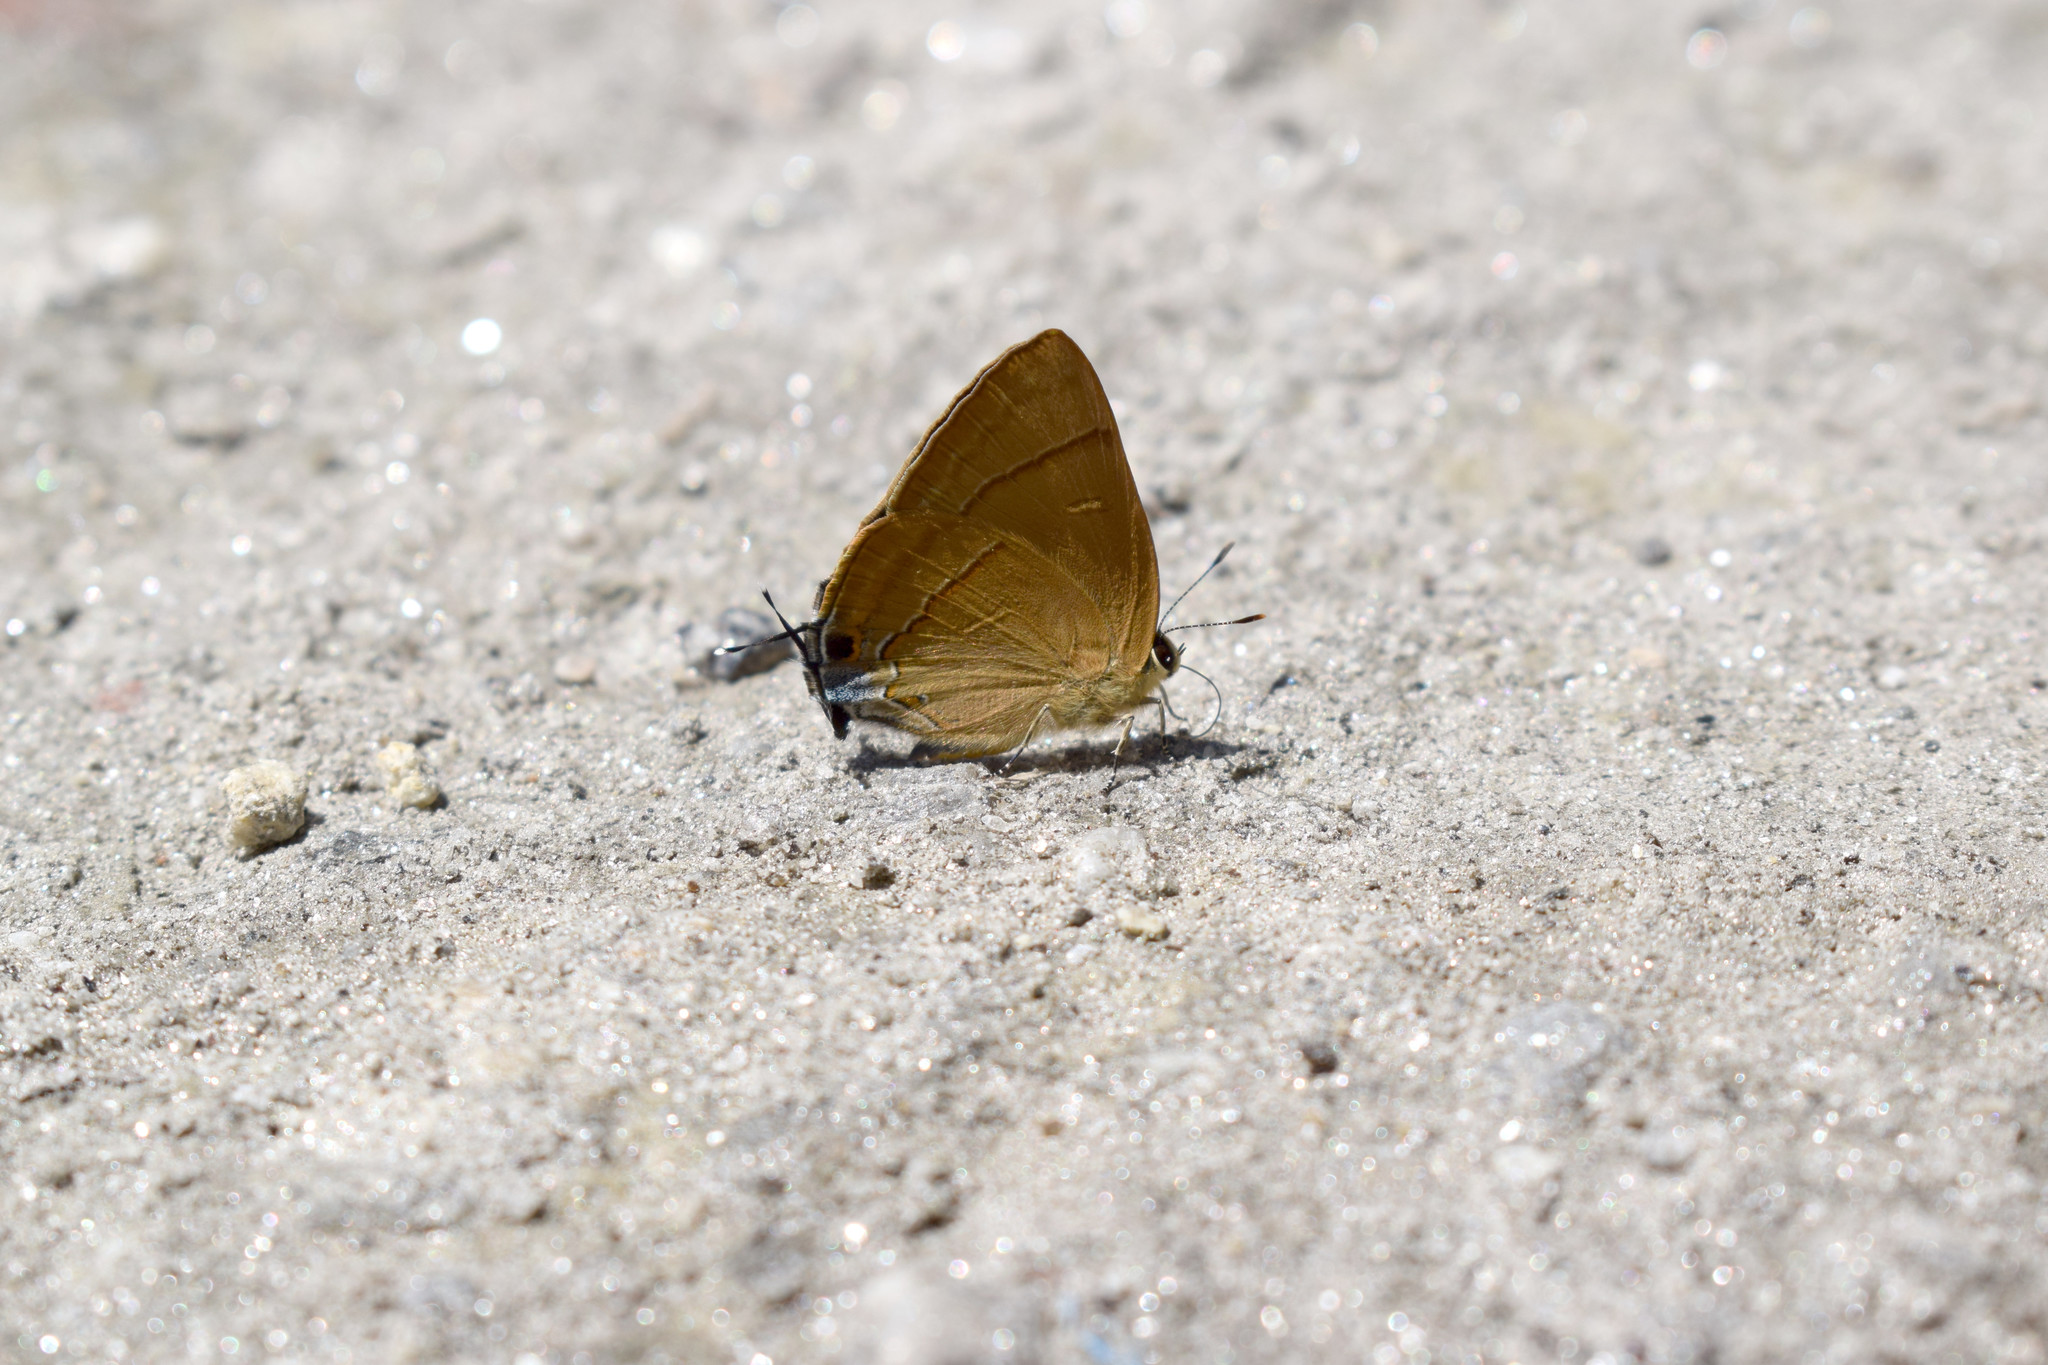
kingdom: Animalia
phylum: Arthropoda
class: Insecta
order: Lepidoptera
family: Lycaenidae
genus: Rapala
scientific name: Rapala nissa
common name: Common flash
